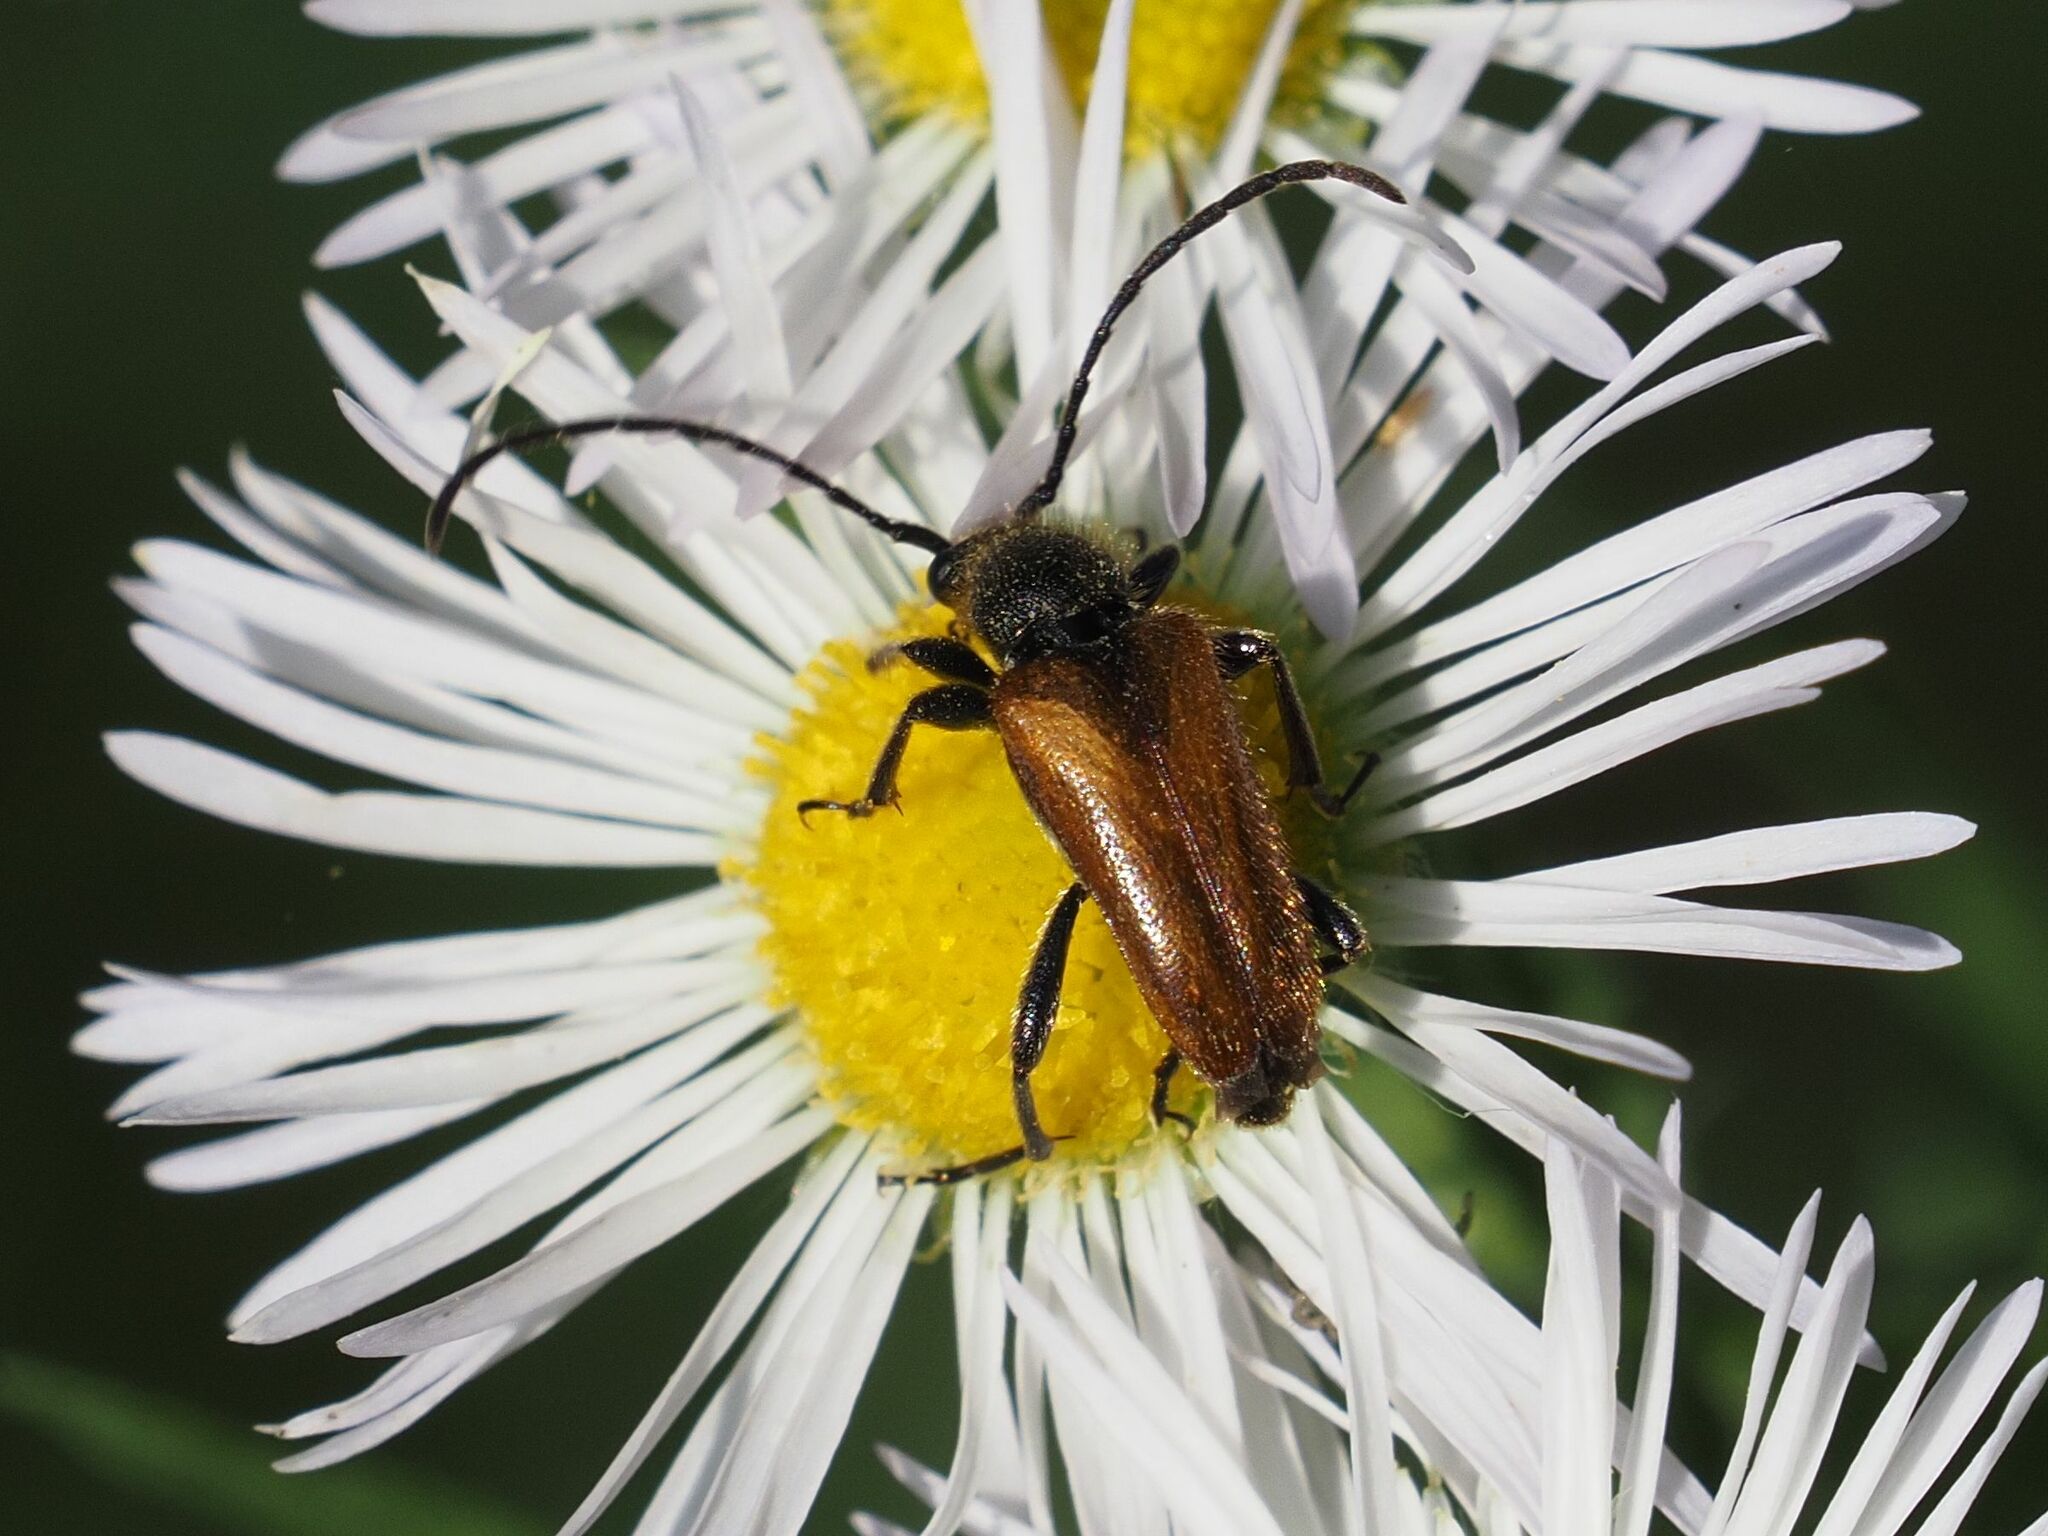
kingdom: Animalia
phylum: Arthropoda
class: Insecta
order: Coleoptera
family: Cerambycidae
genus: Pseudovadonia
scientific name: Pseudovadonia livida
